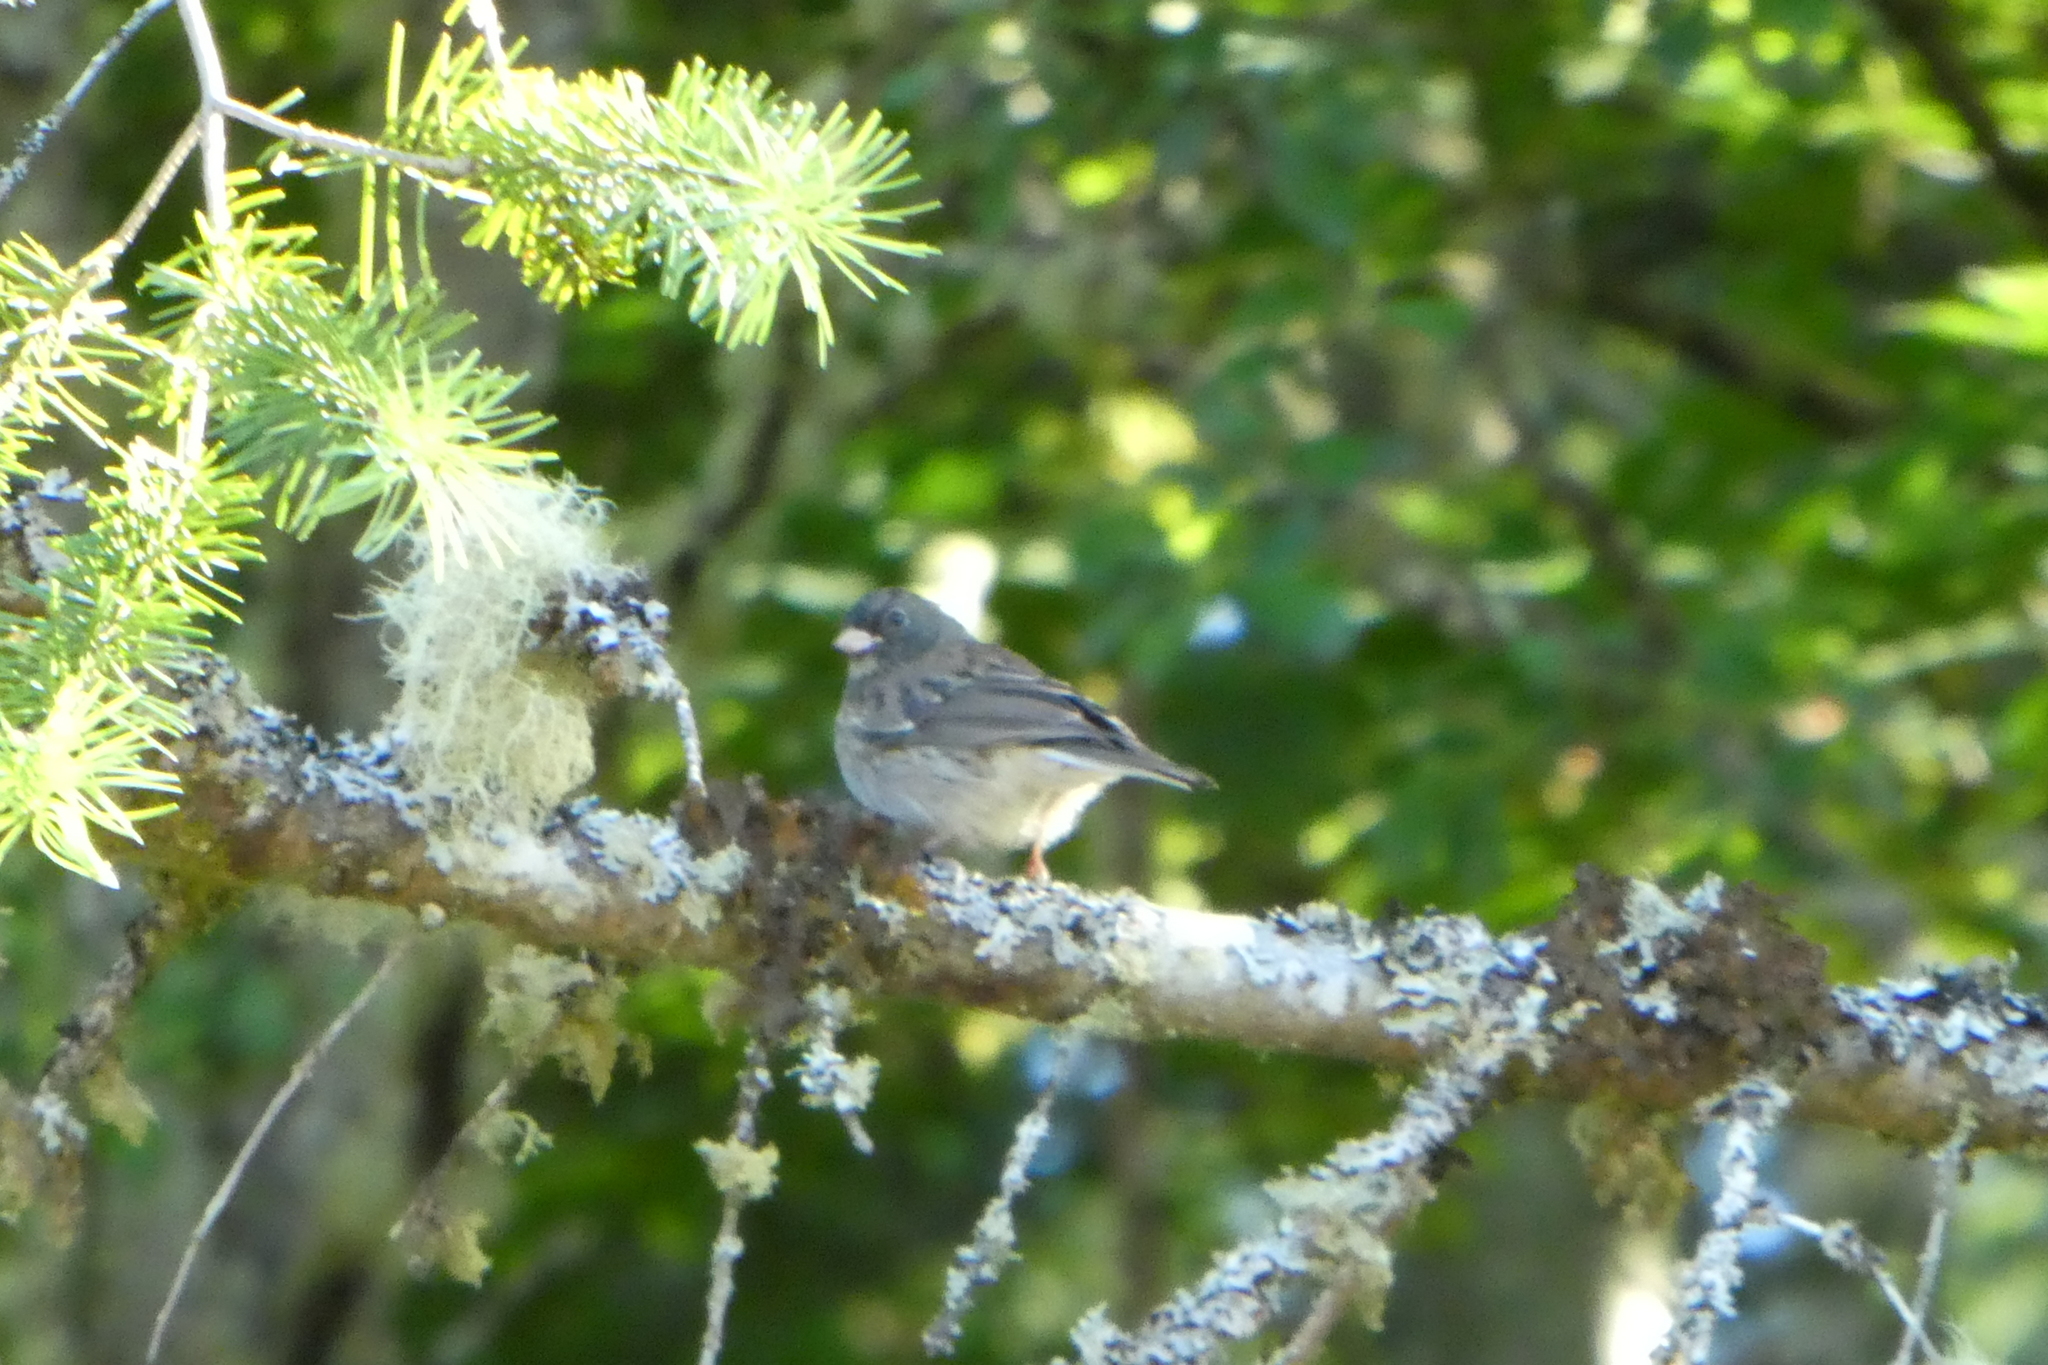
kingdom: Animalia
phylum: Chordata
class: Aves
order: Passeriformes
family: Passerellidae
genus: Junco
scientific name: Junco hyemalis
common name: Dark-eyed junco
